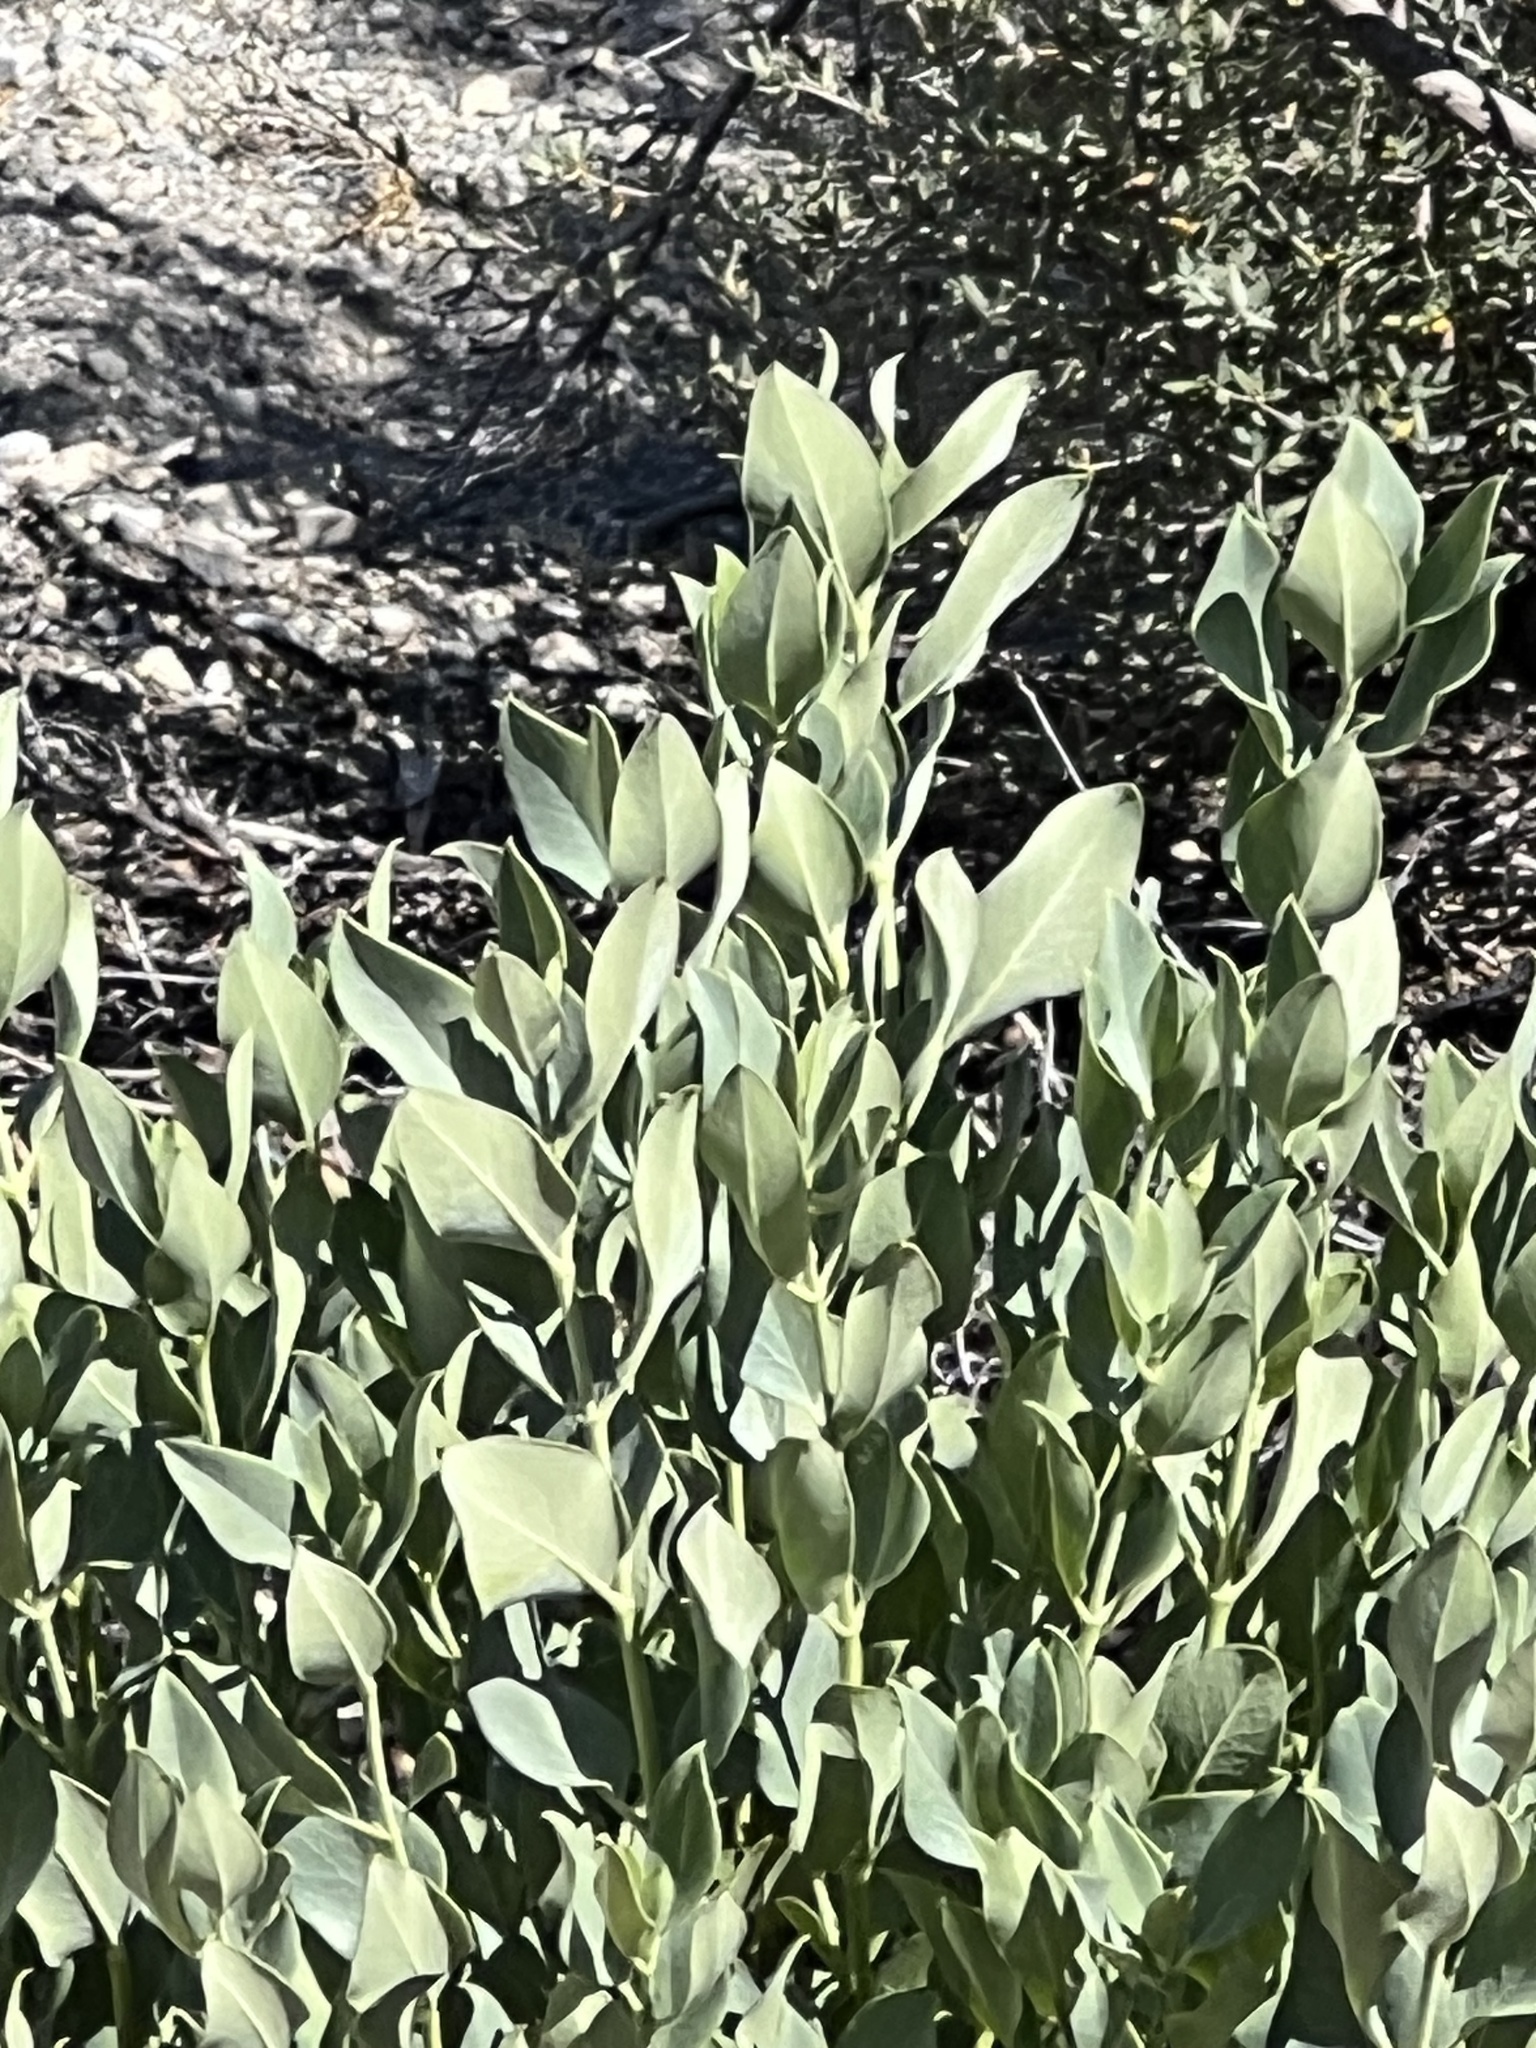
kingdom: Plantae
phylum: Tracheophyta
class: Magnoliopsida
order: Garryales
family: Garryaceae
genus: Garrya
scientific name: Garrya flavescens
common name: Ashy silk-tassel
